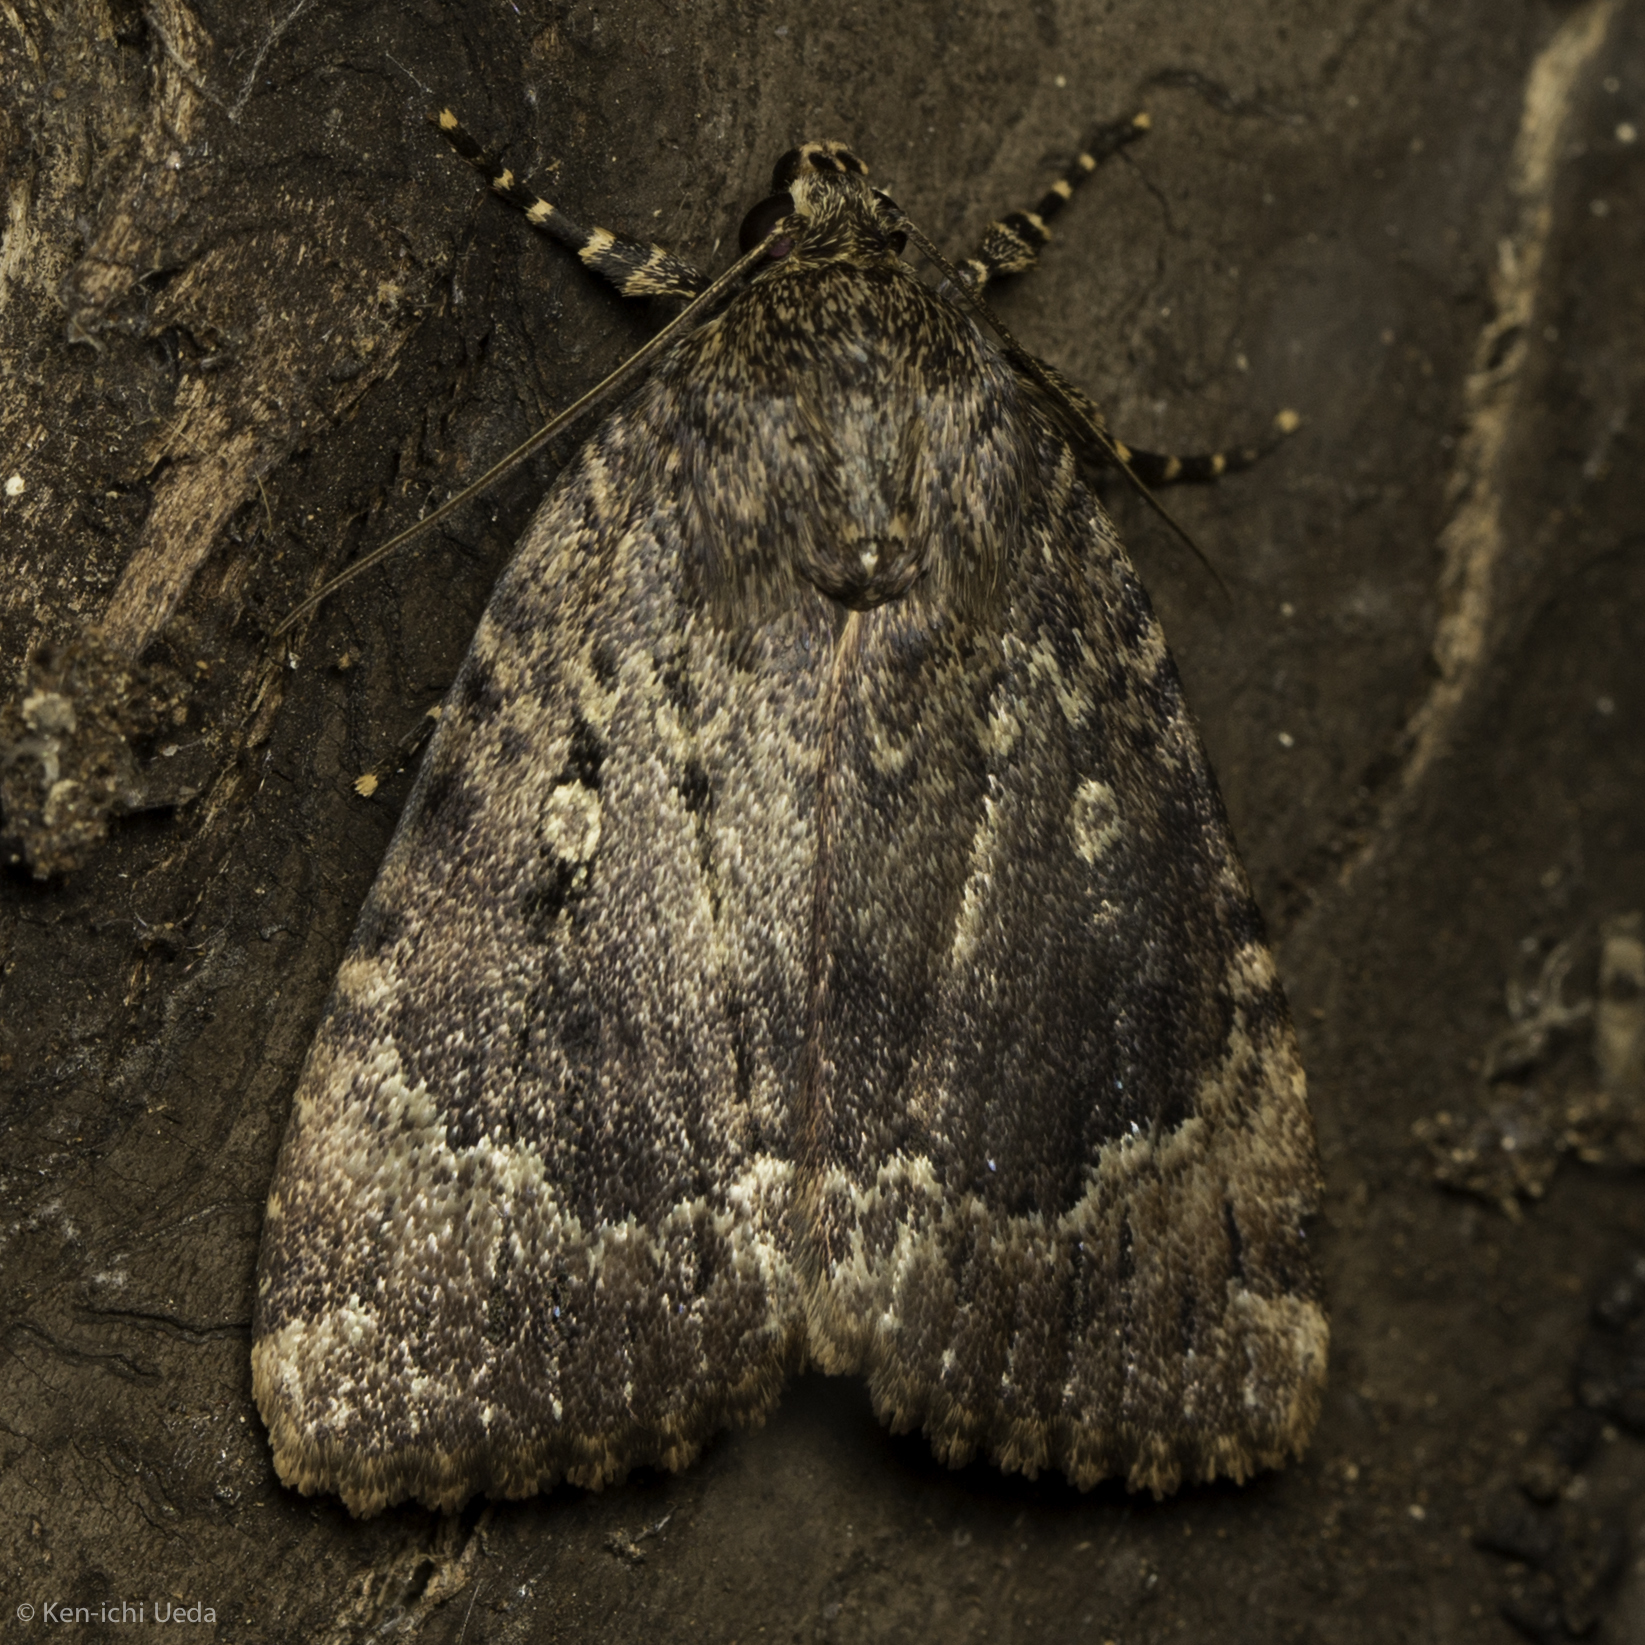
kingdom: Animalia
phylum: Arthropoda
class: Insecta
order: Lepidoptera
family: Noctuidae
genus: Amphipyra
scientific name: Amphipyra pyramidoides
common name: American copper underwing
